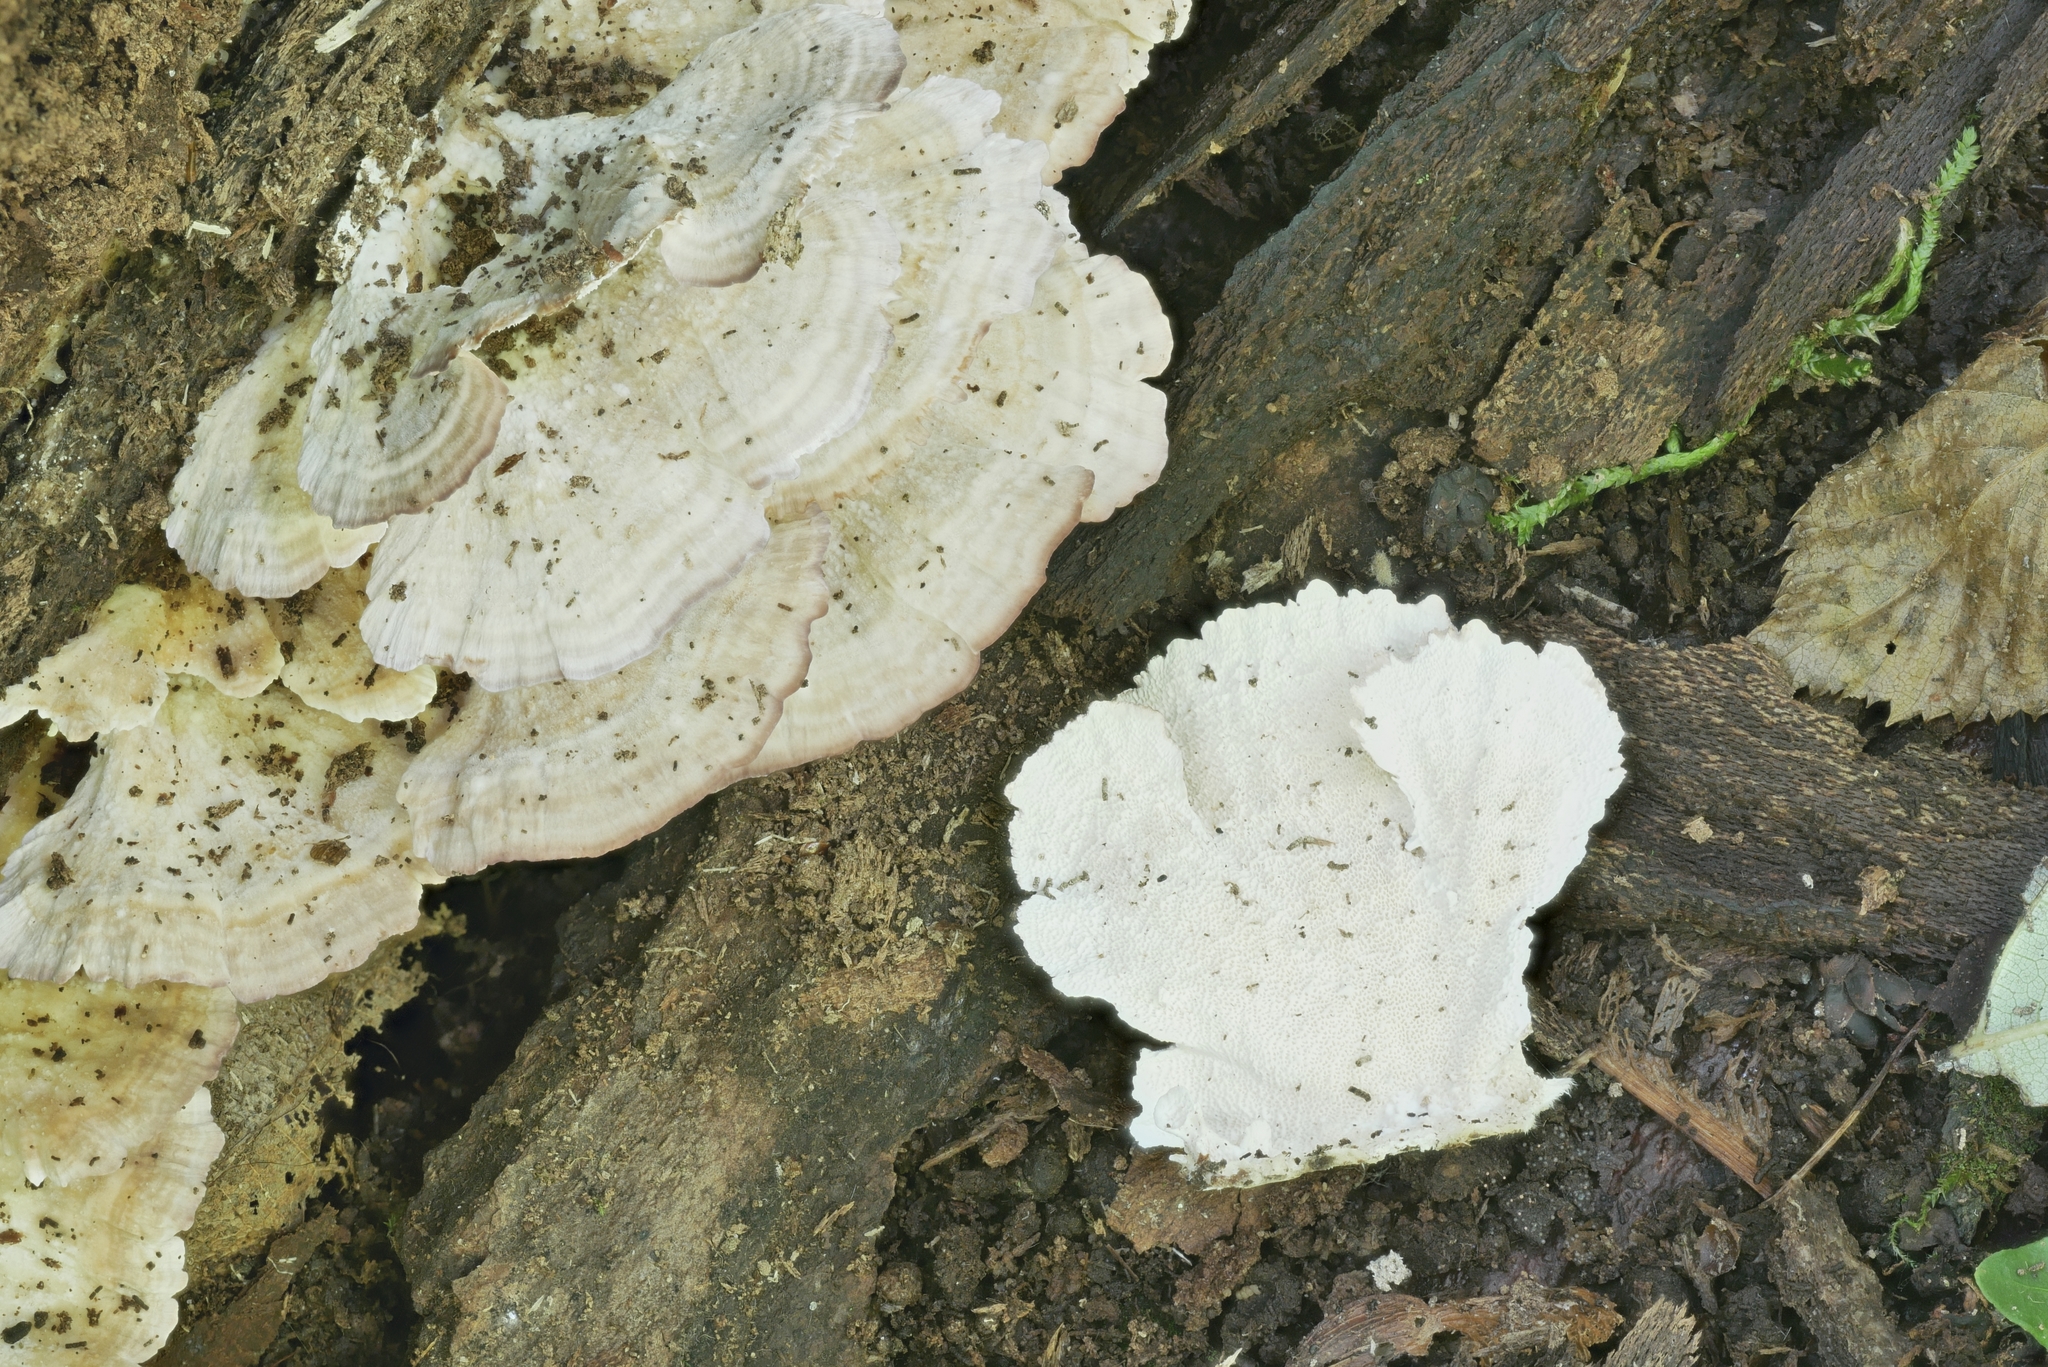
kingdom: Fungi
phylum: Basidiomycota
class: Agaricomycetes
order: Hymenochaetales
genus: Trichaptum
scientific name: Trichaptum biforme
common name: Violet-toothed polypore
